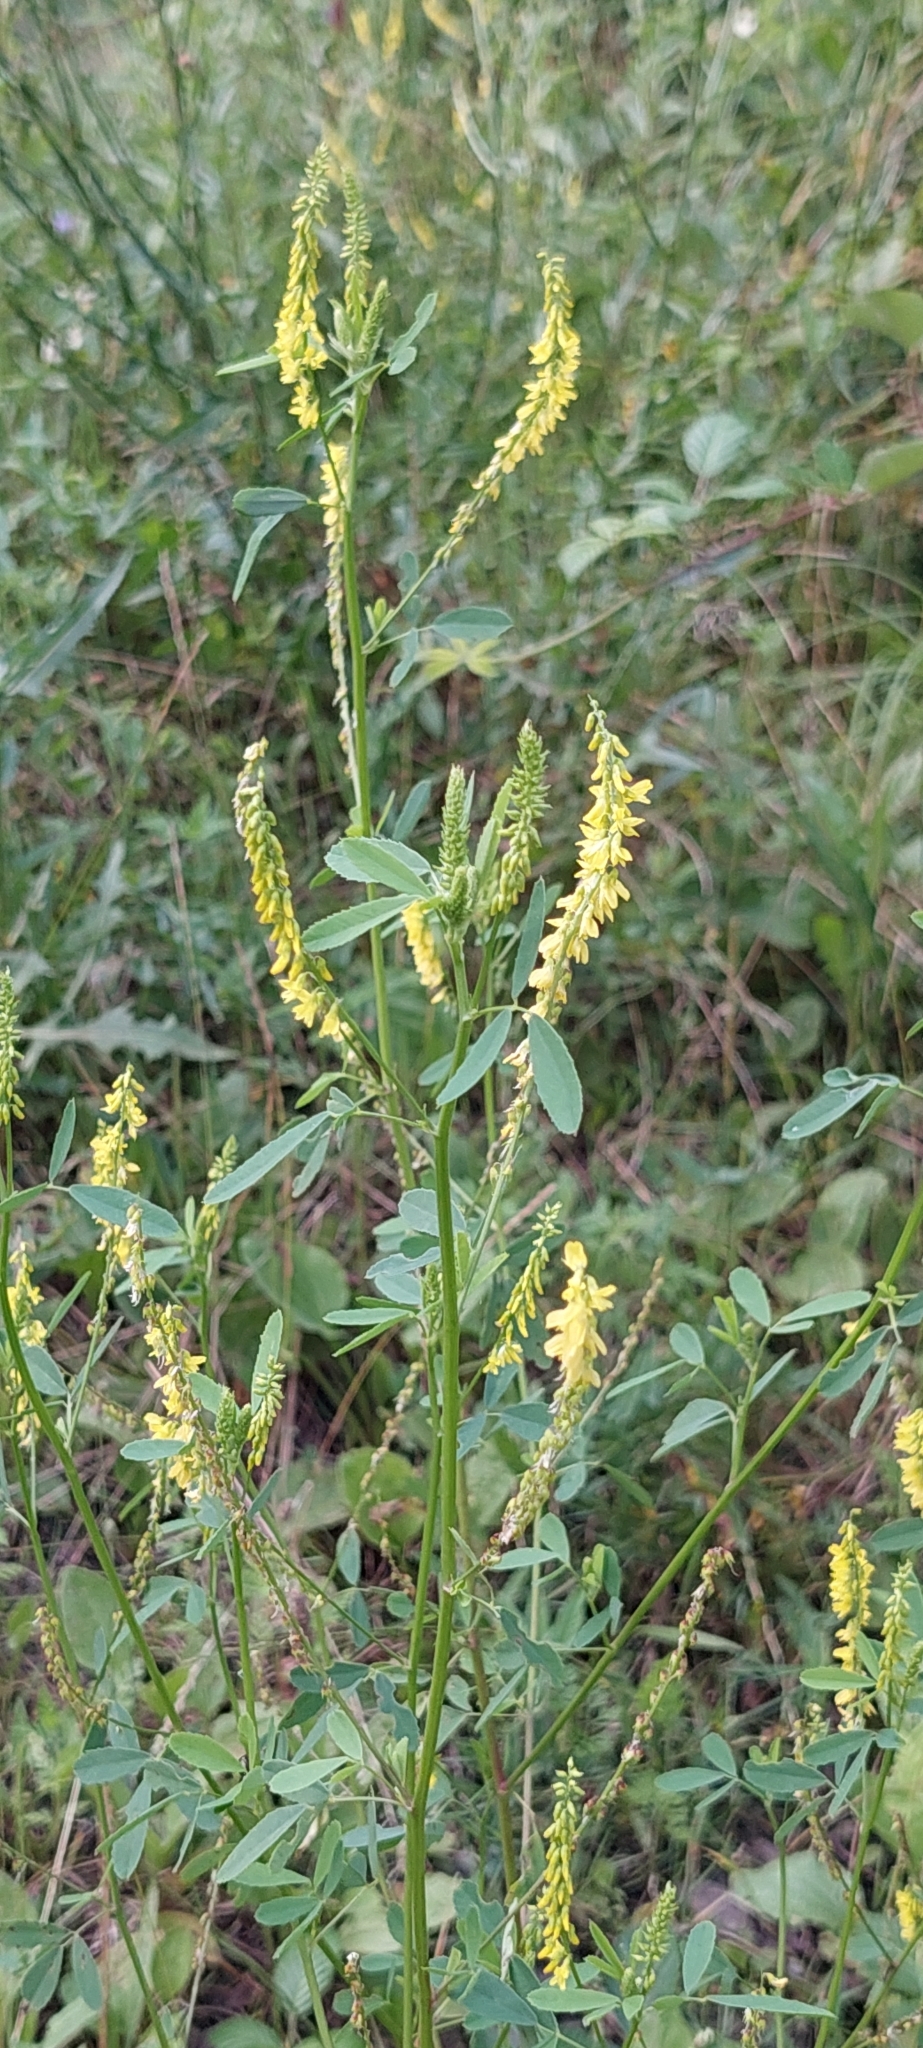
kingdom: Plantae
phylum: Tracheophyta
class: Magnoliopsida
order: Fabales
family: Fabaceae
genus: Melilotus
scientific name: Melilotus officinalis
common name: Sweetclover
